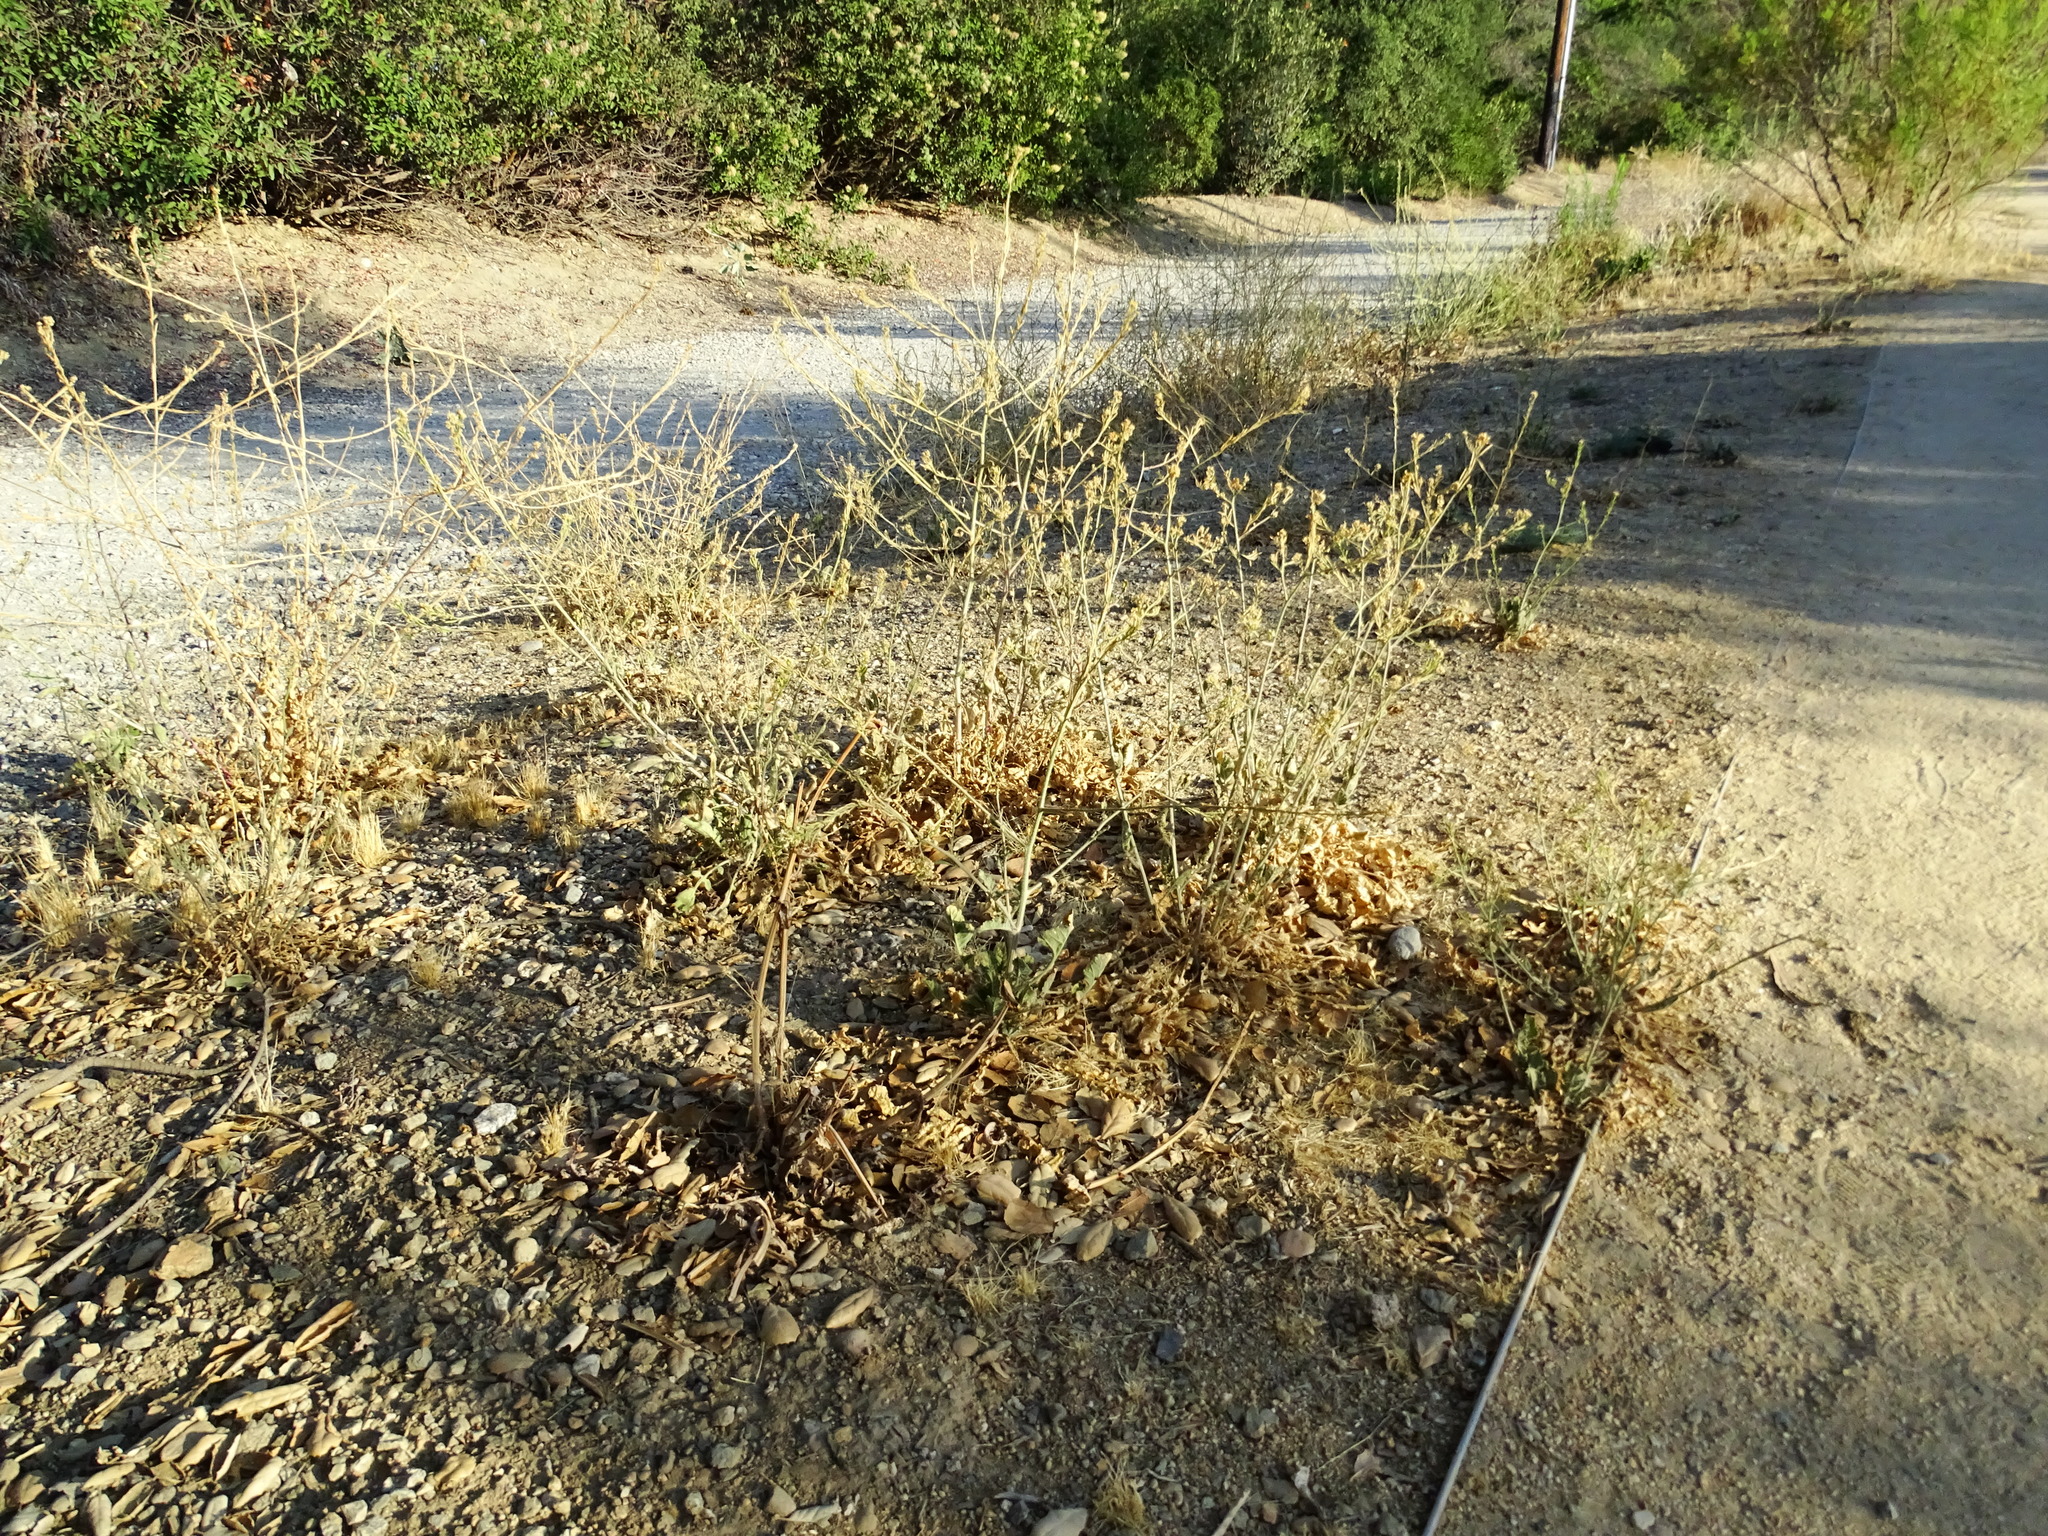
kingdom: Plantae
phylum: Tracheophyta
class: Magnoliopsida
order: Brassicales
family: Brassicaceae
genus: Hirschfeldia
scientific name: Hirschfeldia incana
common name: Hoary mustard
